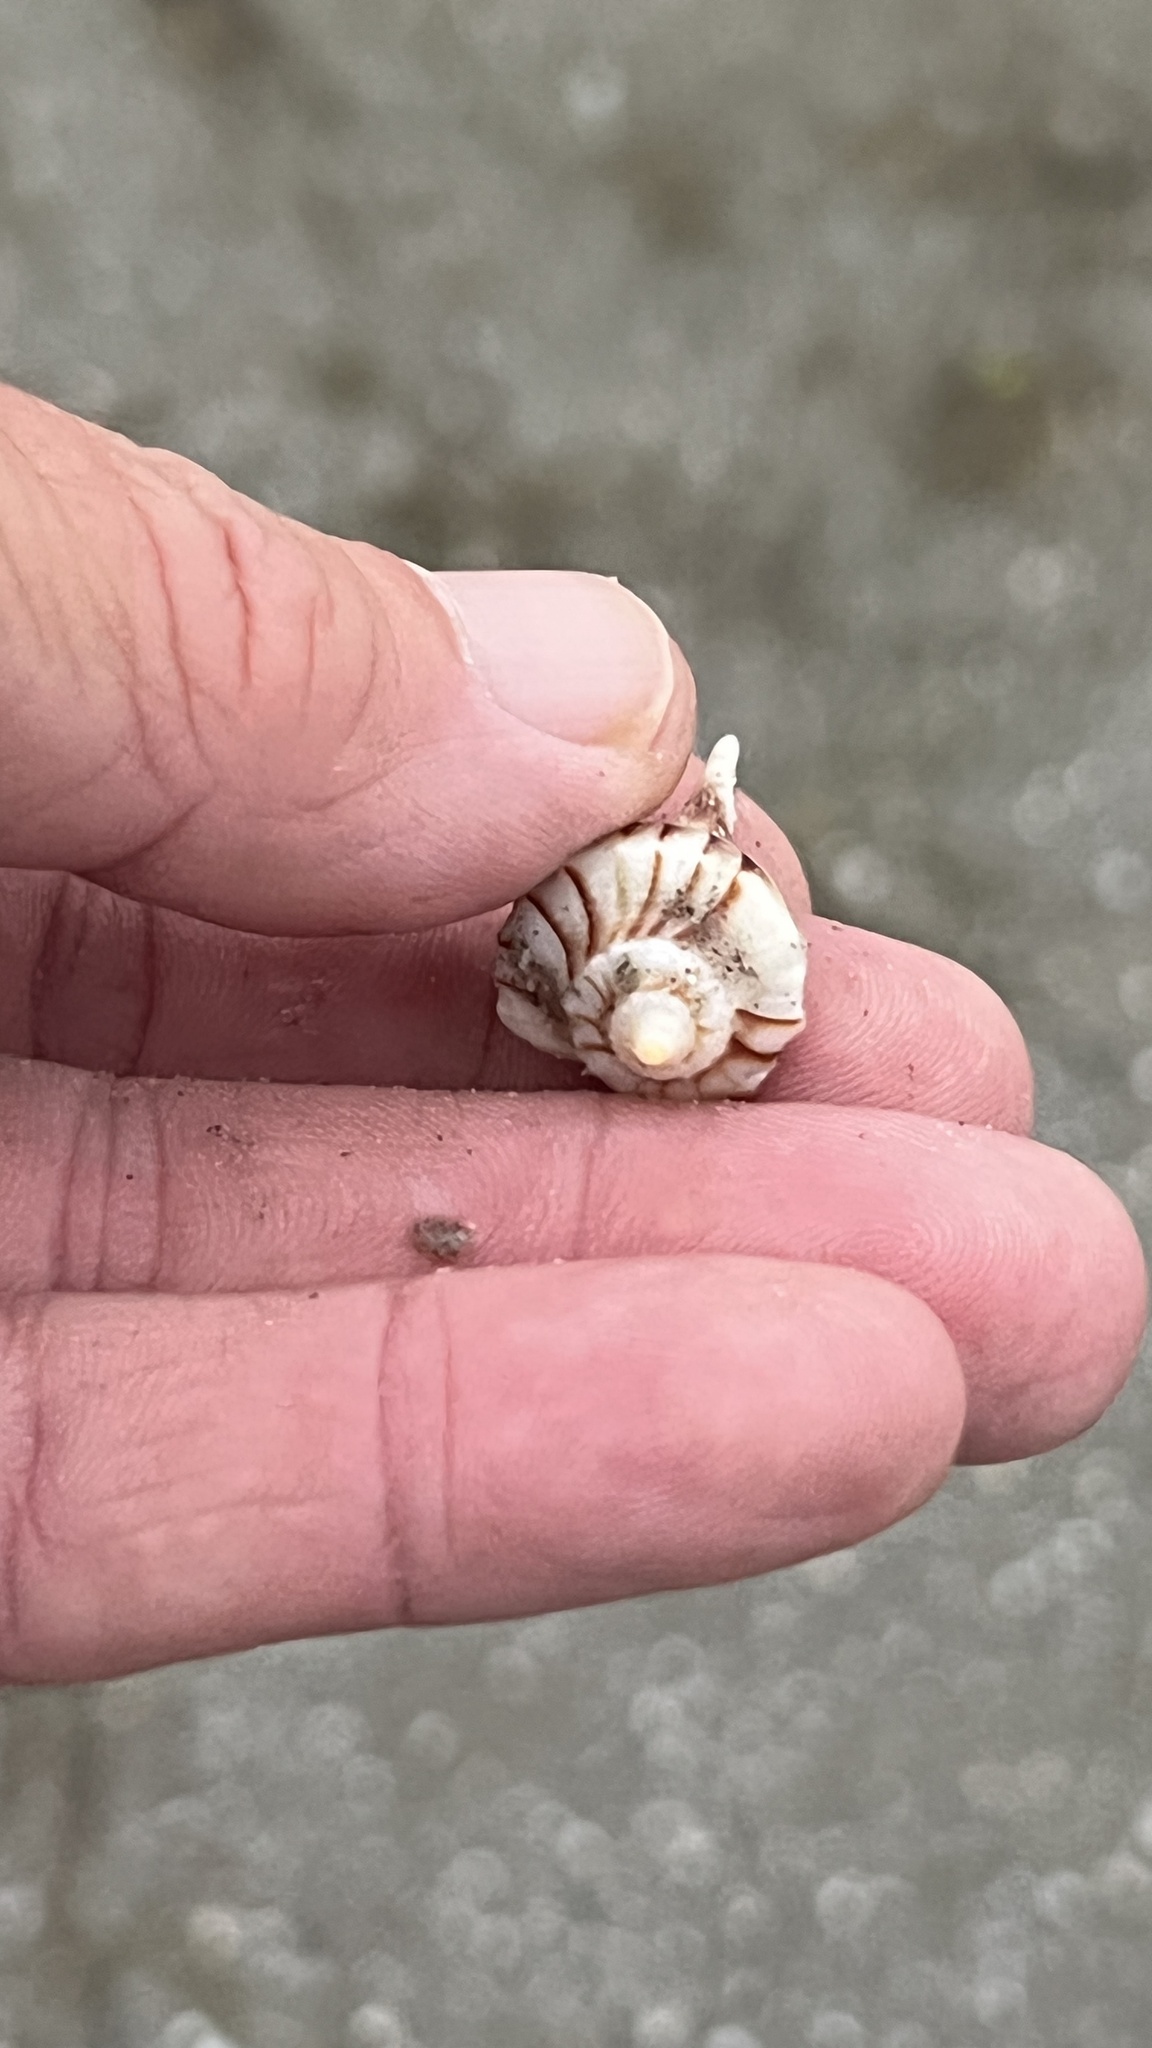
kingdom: Animalia
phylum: Mollusca
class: Gastropoda
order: Neogastropoda
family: Busyconidae
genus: Sinistrofulgur
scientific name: Sinistrofulgur pulleyi
